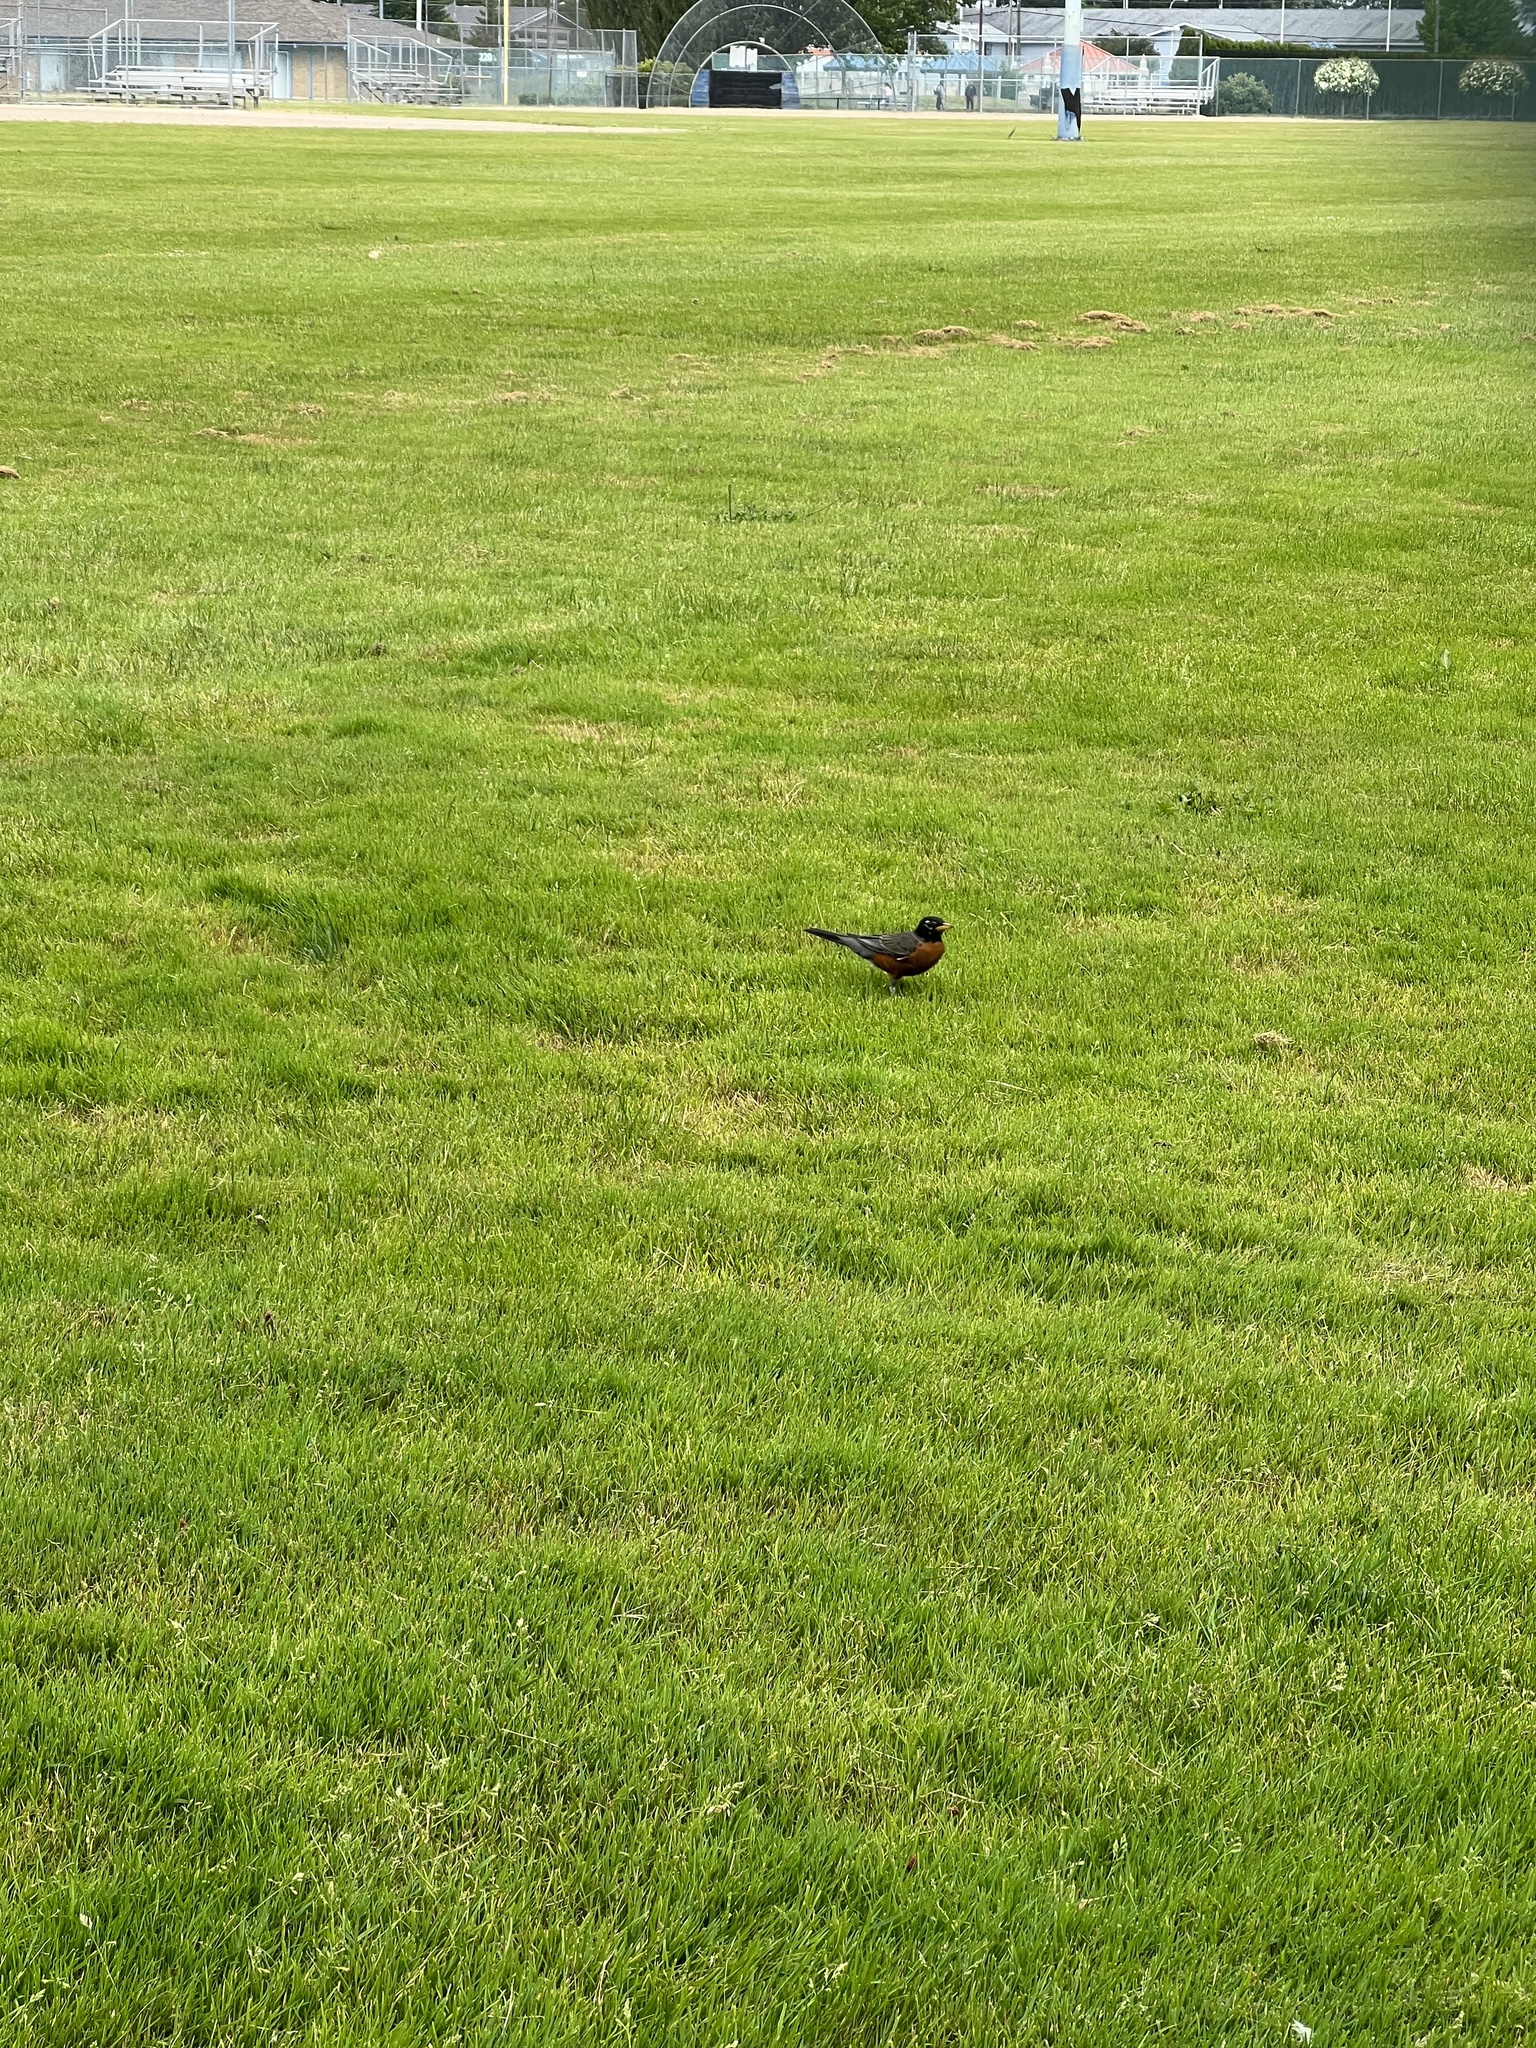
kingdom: Animalia
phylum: Chordata
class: Aves
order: Passeriformes
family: Turdidae
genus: Turdus
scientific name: Turdus migratorius
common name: American robin
